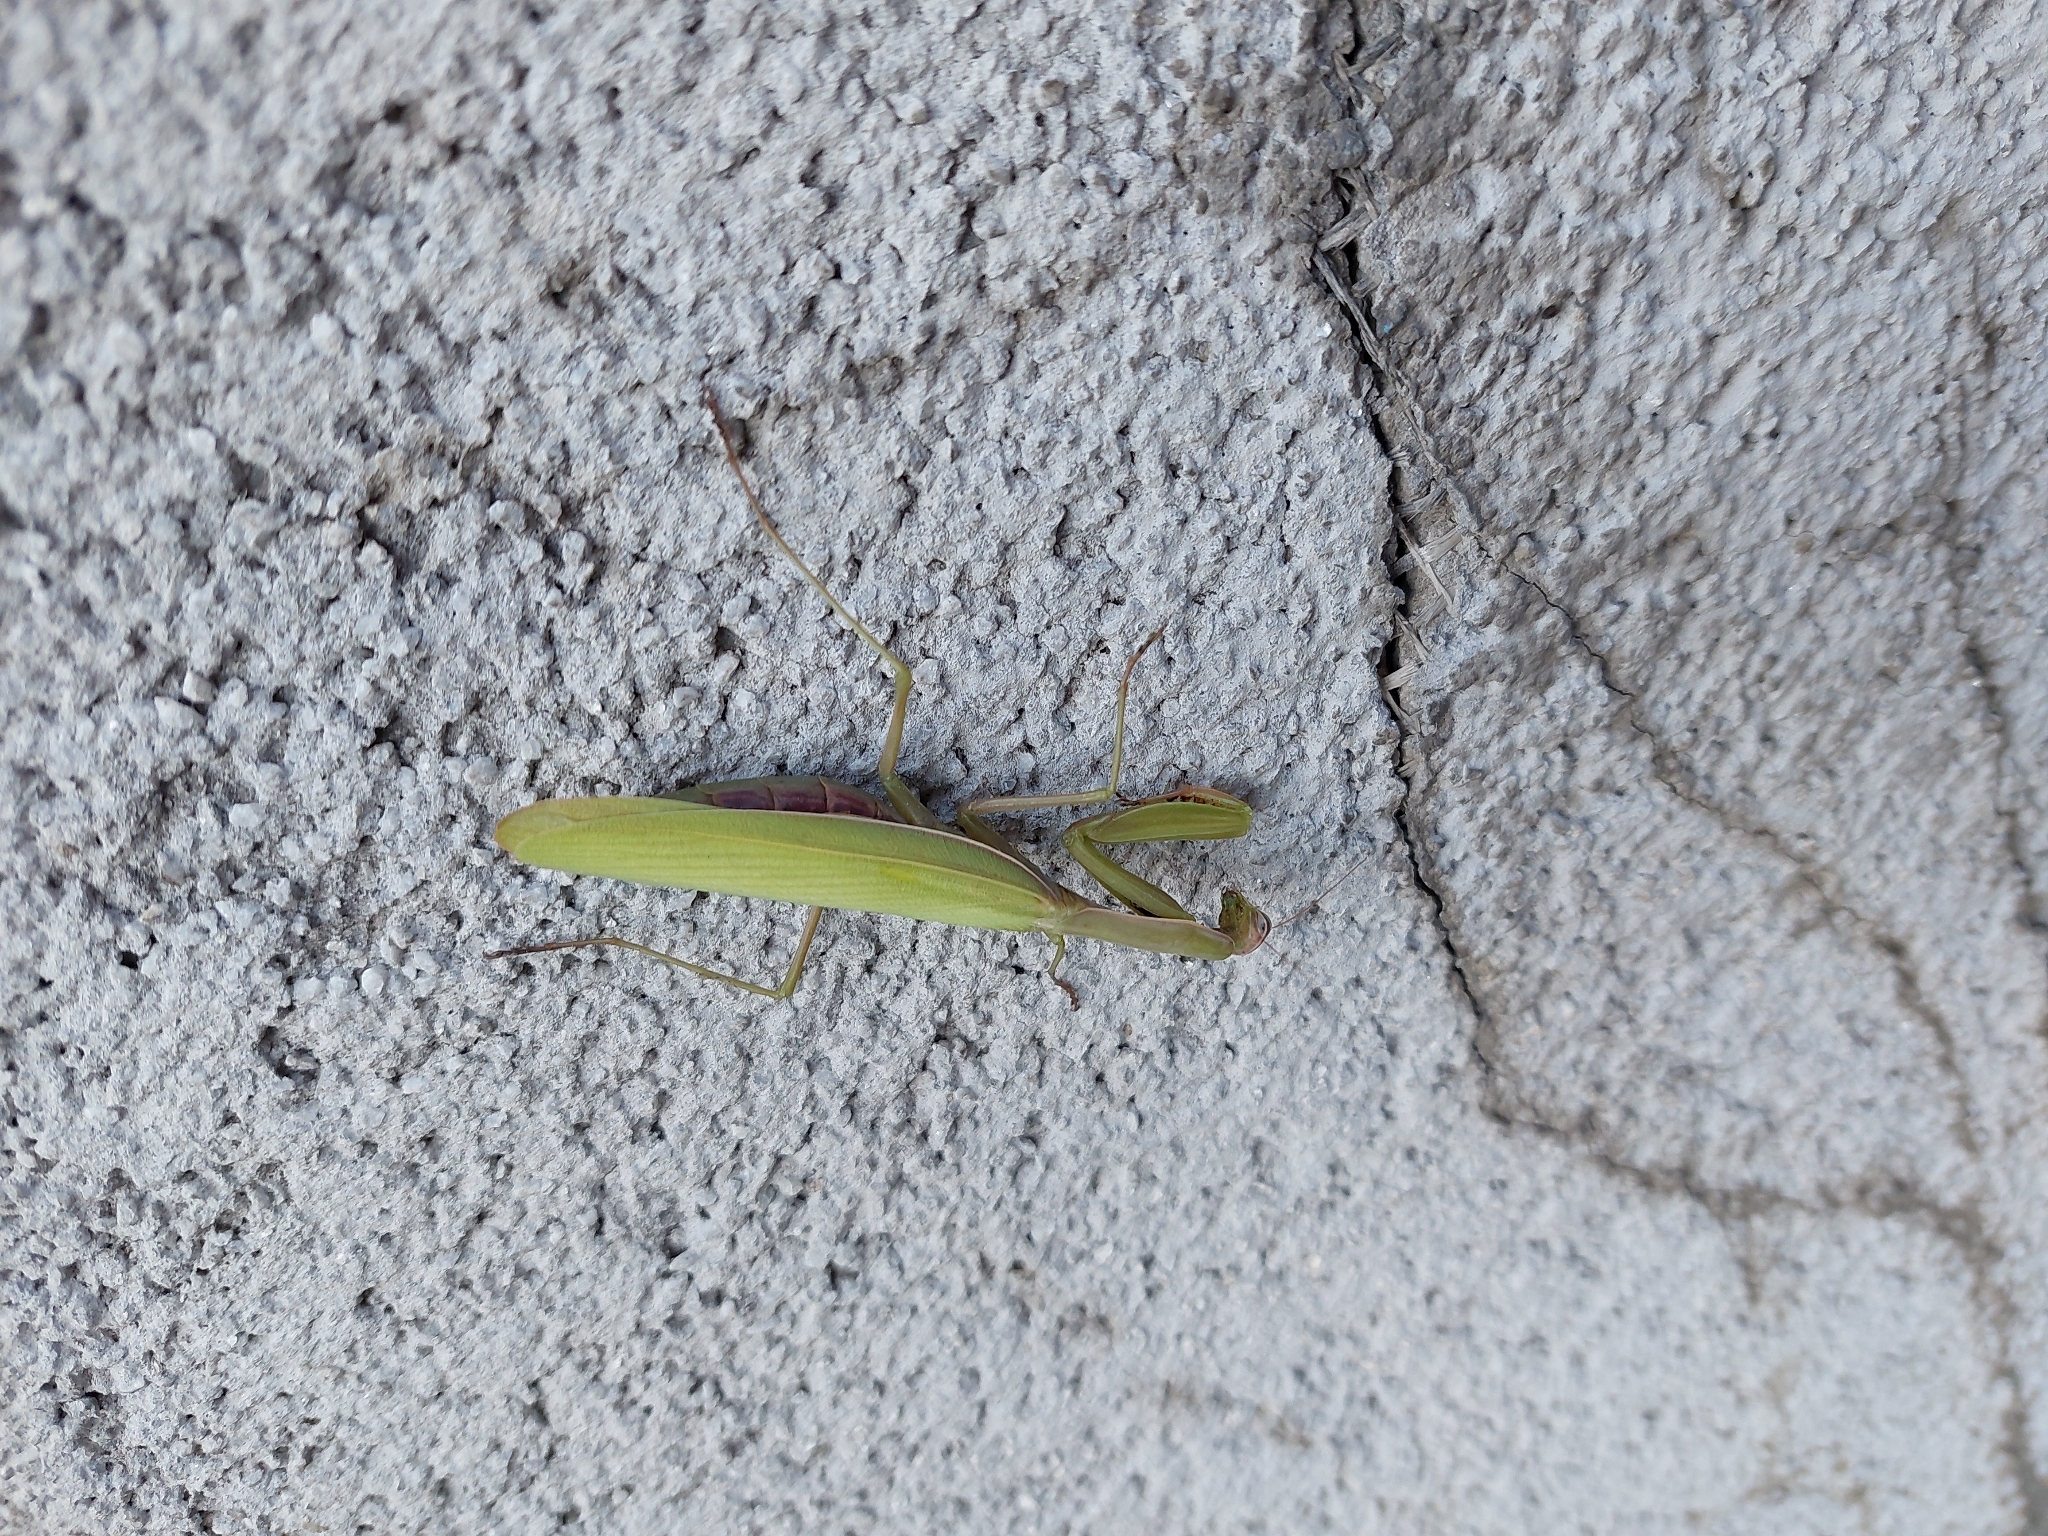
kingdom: Animalia
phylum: Arthropoda
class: Insecta
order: Mantodea
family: Mantidae
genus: Mantis
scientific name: Mantis religiosa
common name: Praying mantis
